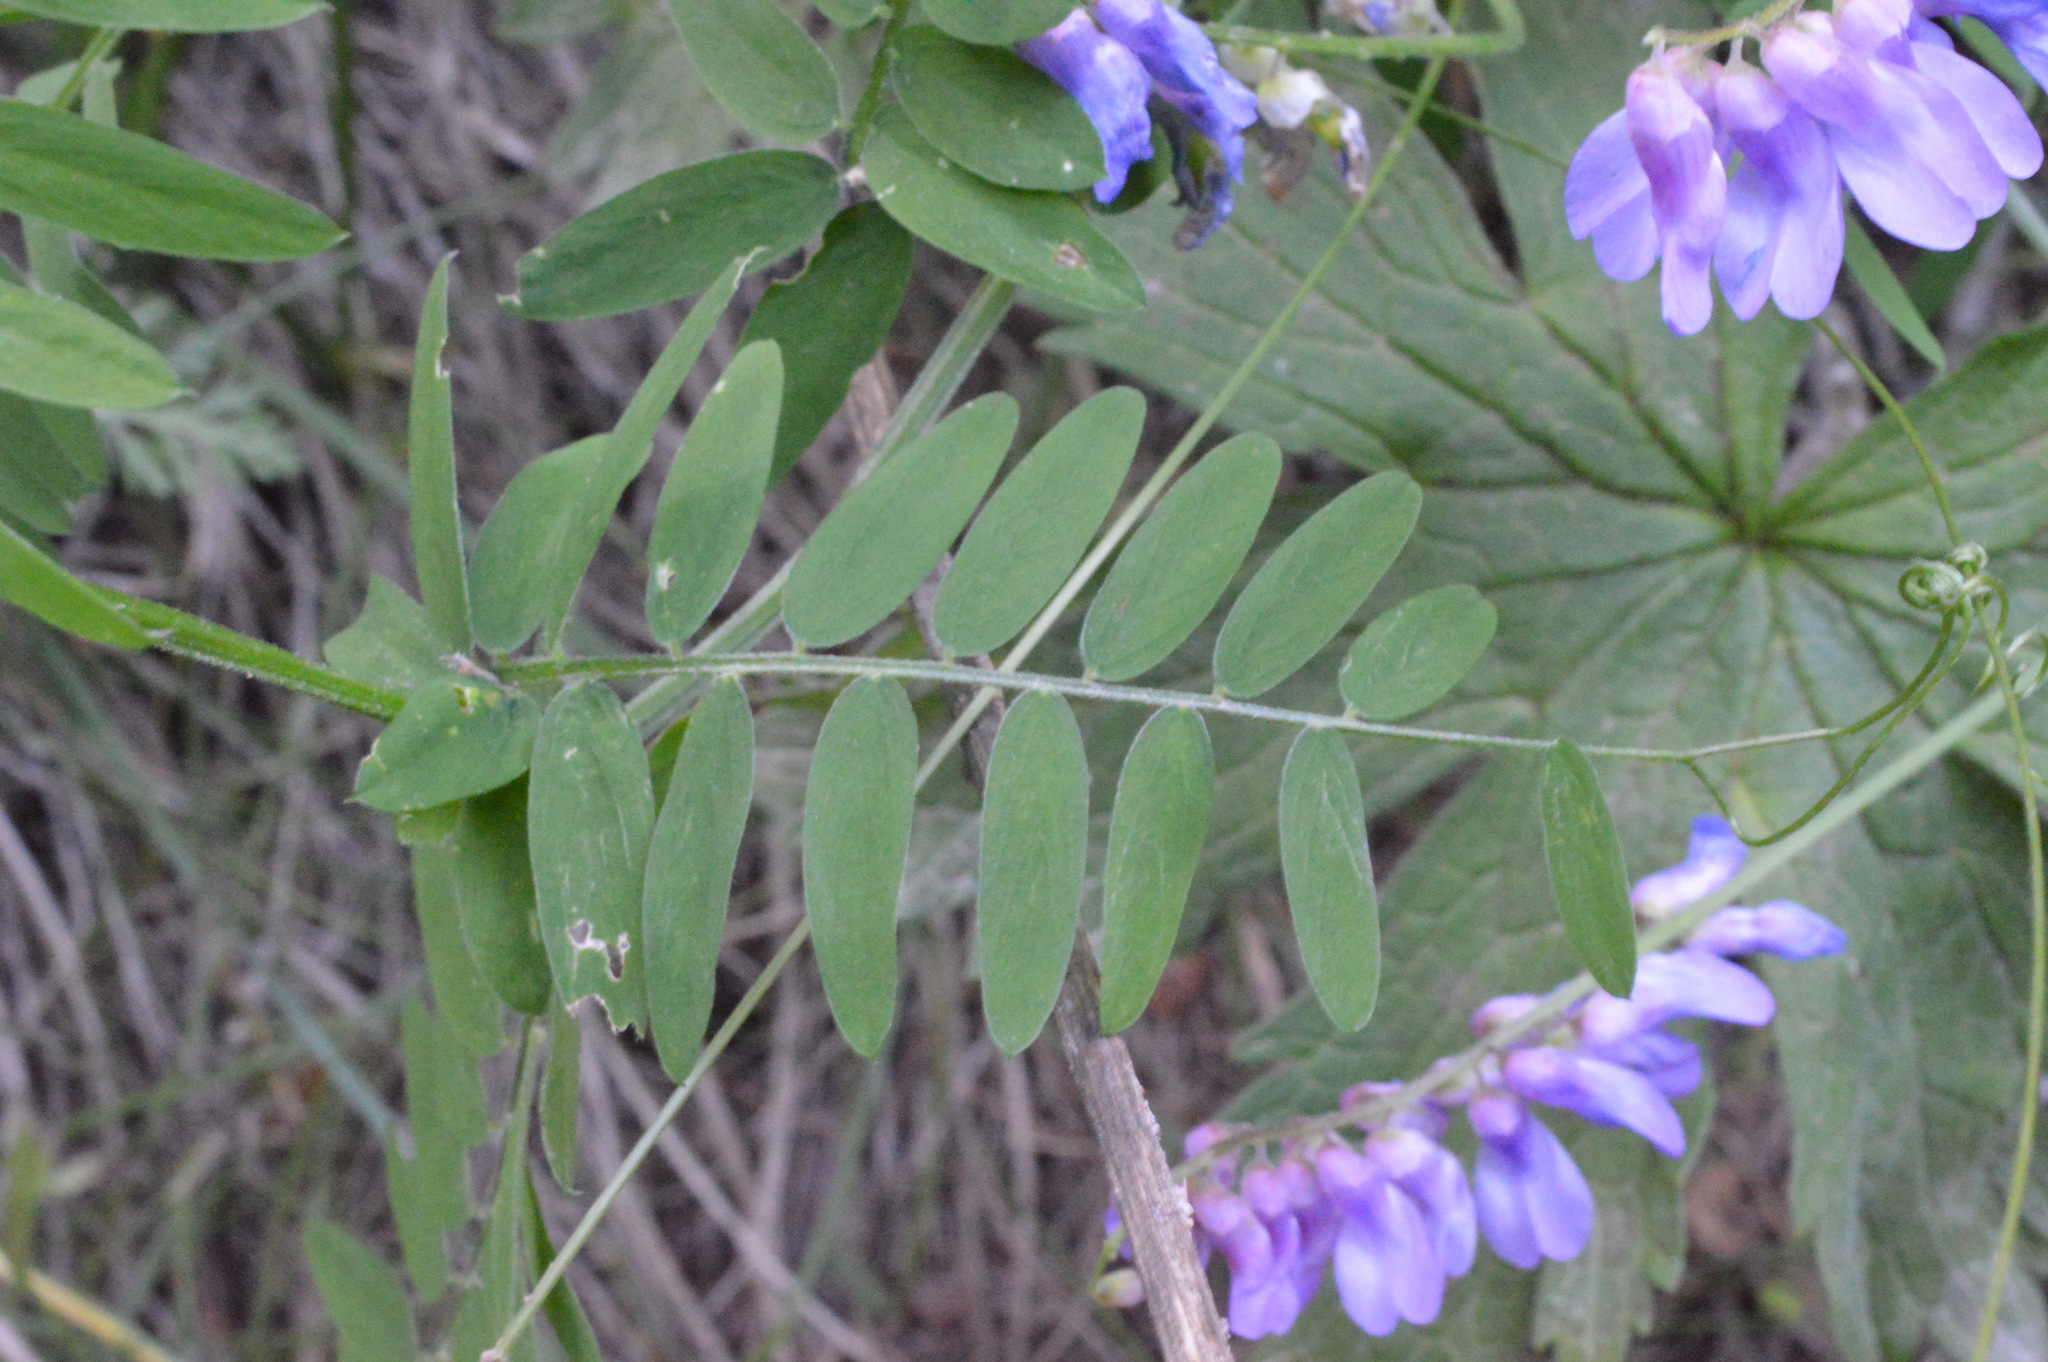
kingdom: Plantae
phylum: Tracheophyta
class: Magnoliopsida
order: Fabales
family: Fabaceae
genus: Vicia
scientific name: Vicia cracca
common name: Bird vetch
